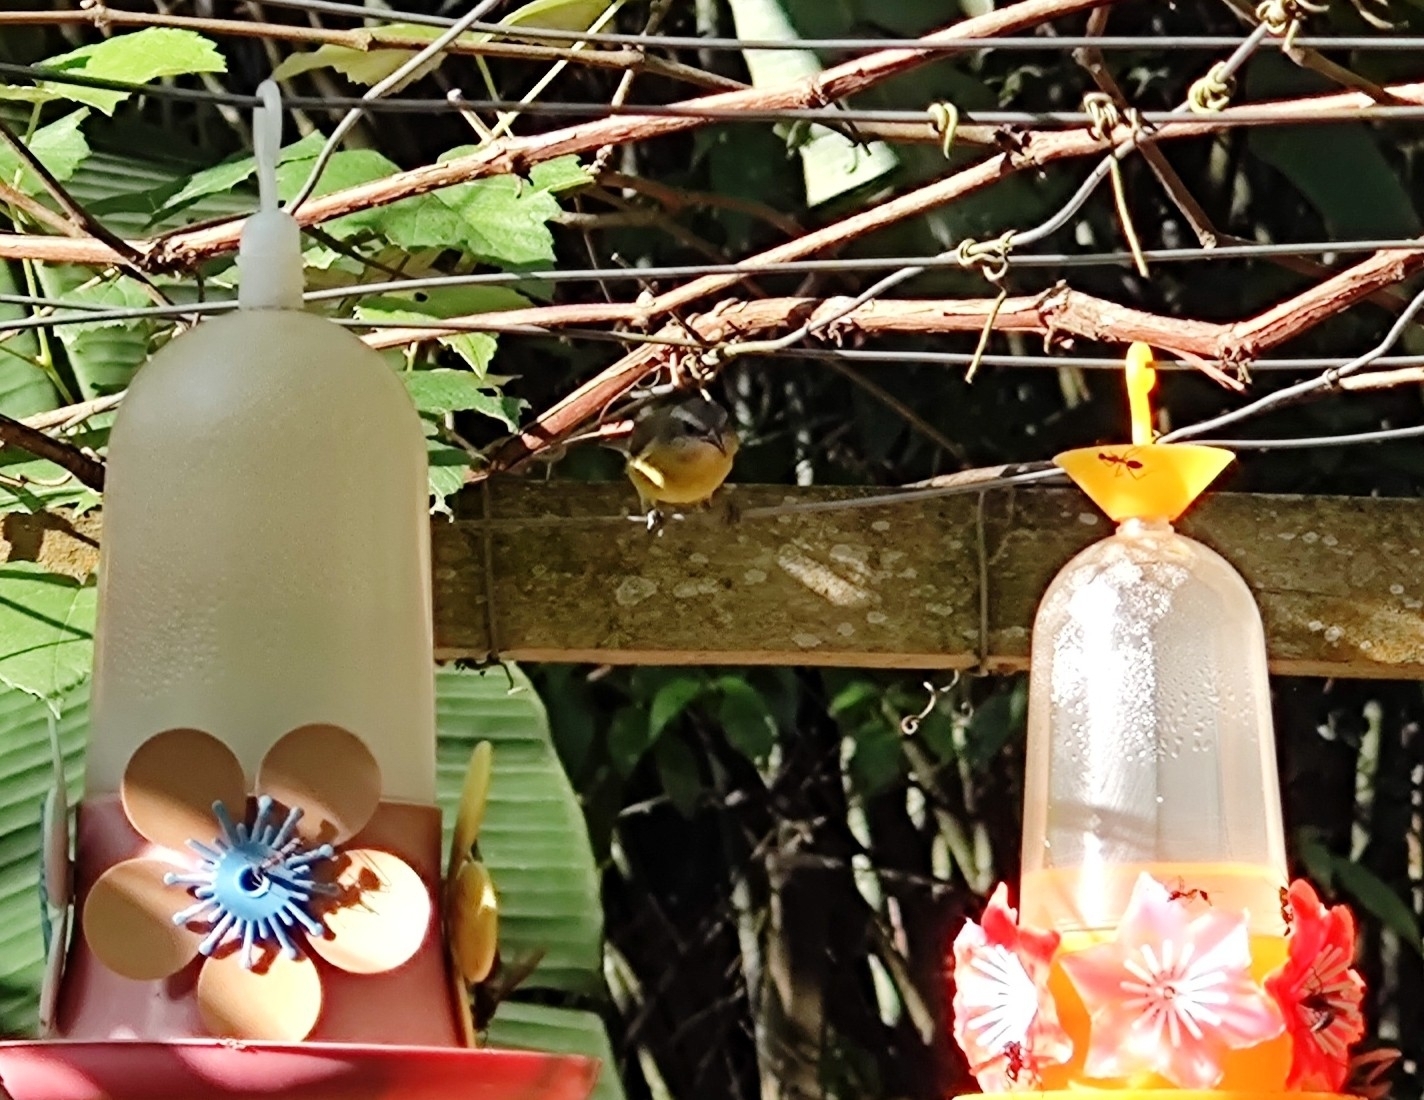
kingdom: Animalia
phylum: Chordata
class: Aves
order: Passeriformes
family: Thraupidae
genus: Coereba
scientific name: Coereba flaveola
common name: Bananaquit
